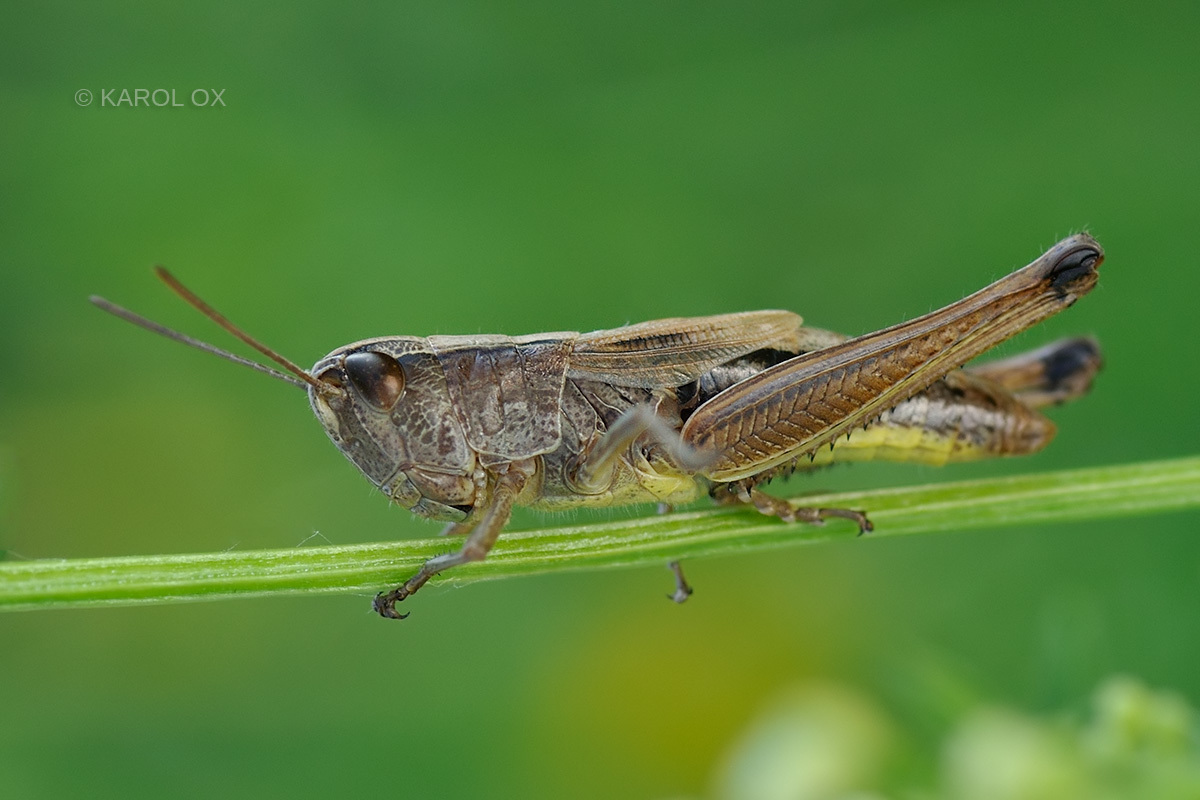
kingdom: Animalia
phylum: Arthropoda
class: Insecta
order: Orthoptera
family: Acrididae
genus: Pseudochorthippus
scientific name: Pseudochorthippus parallelus
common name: Meadow grasshopper
